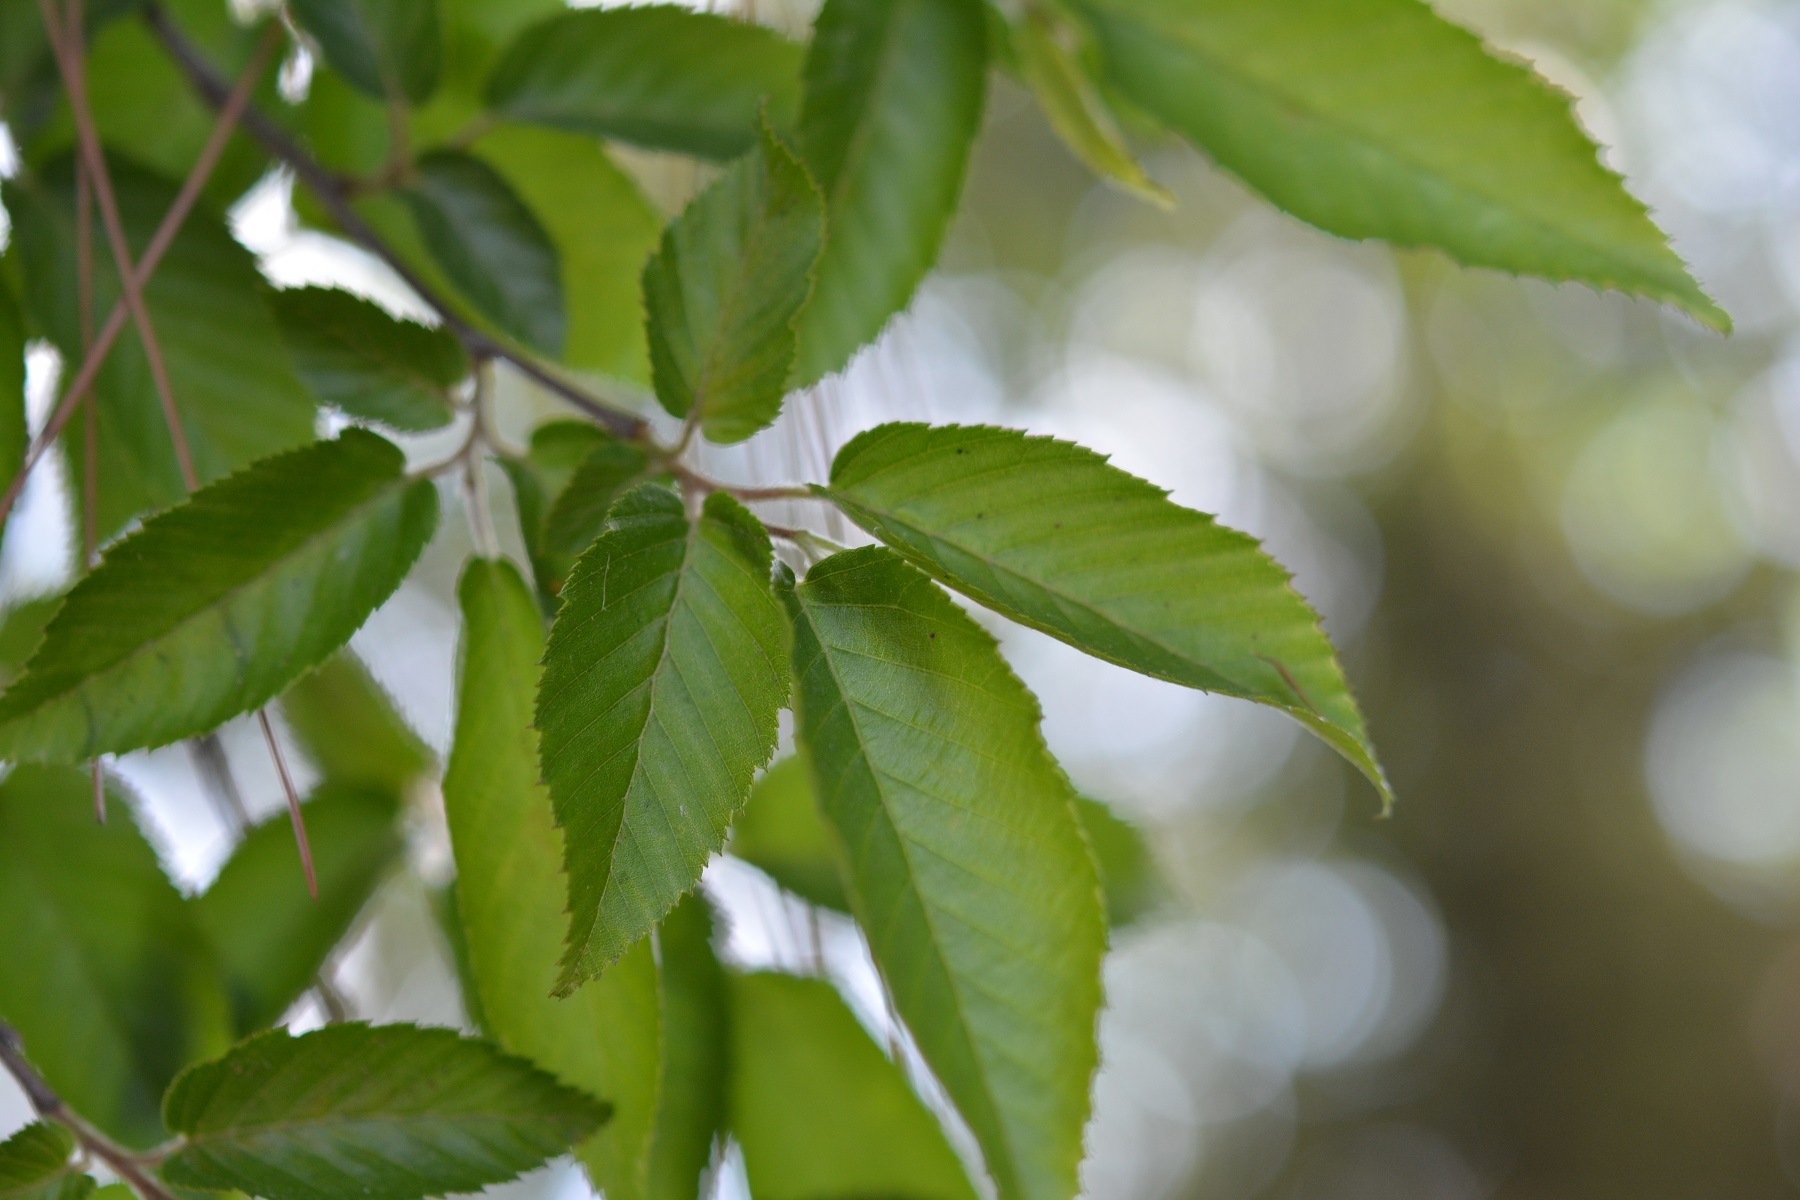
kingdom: Plantae
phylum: Tracheophyta
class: Magnoliopsida
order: Fagales
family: Betulaceae
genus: Carpinus
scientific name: Carpinus tropicalis
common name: Hornbeam
